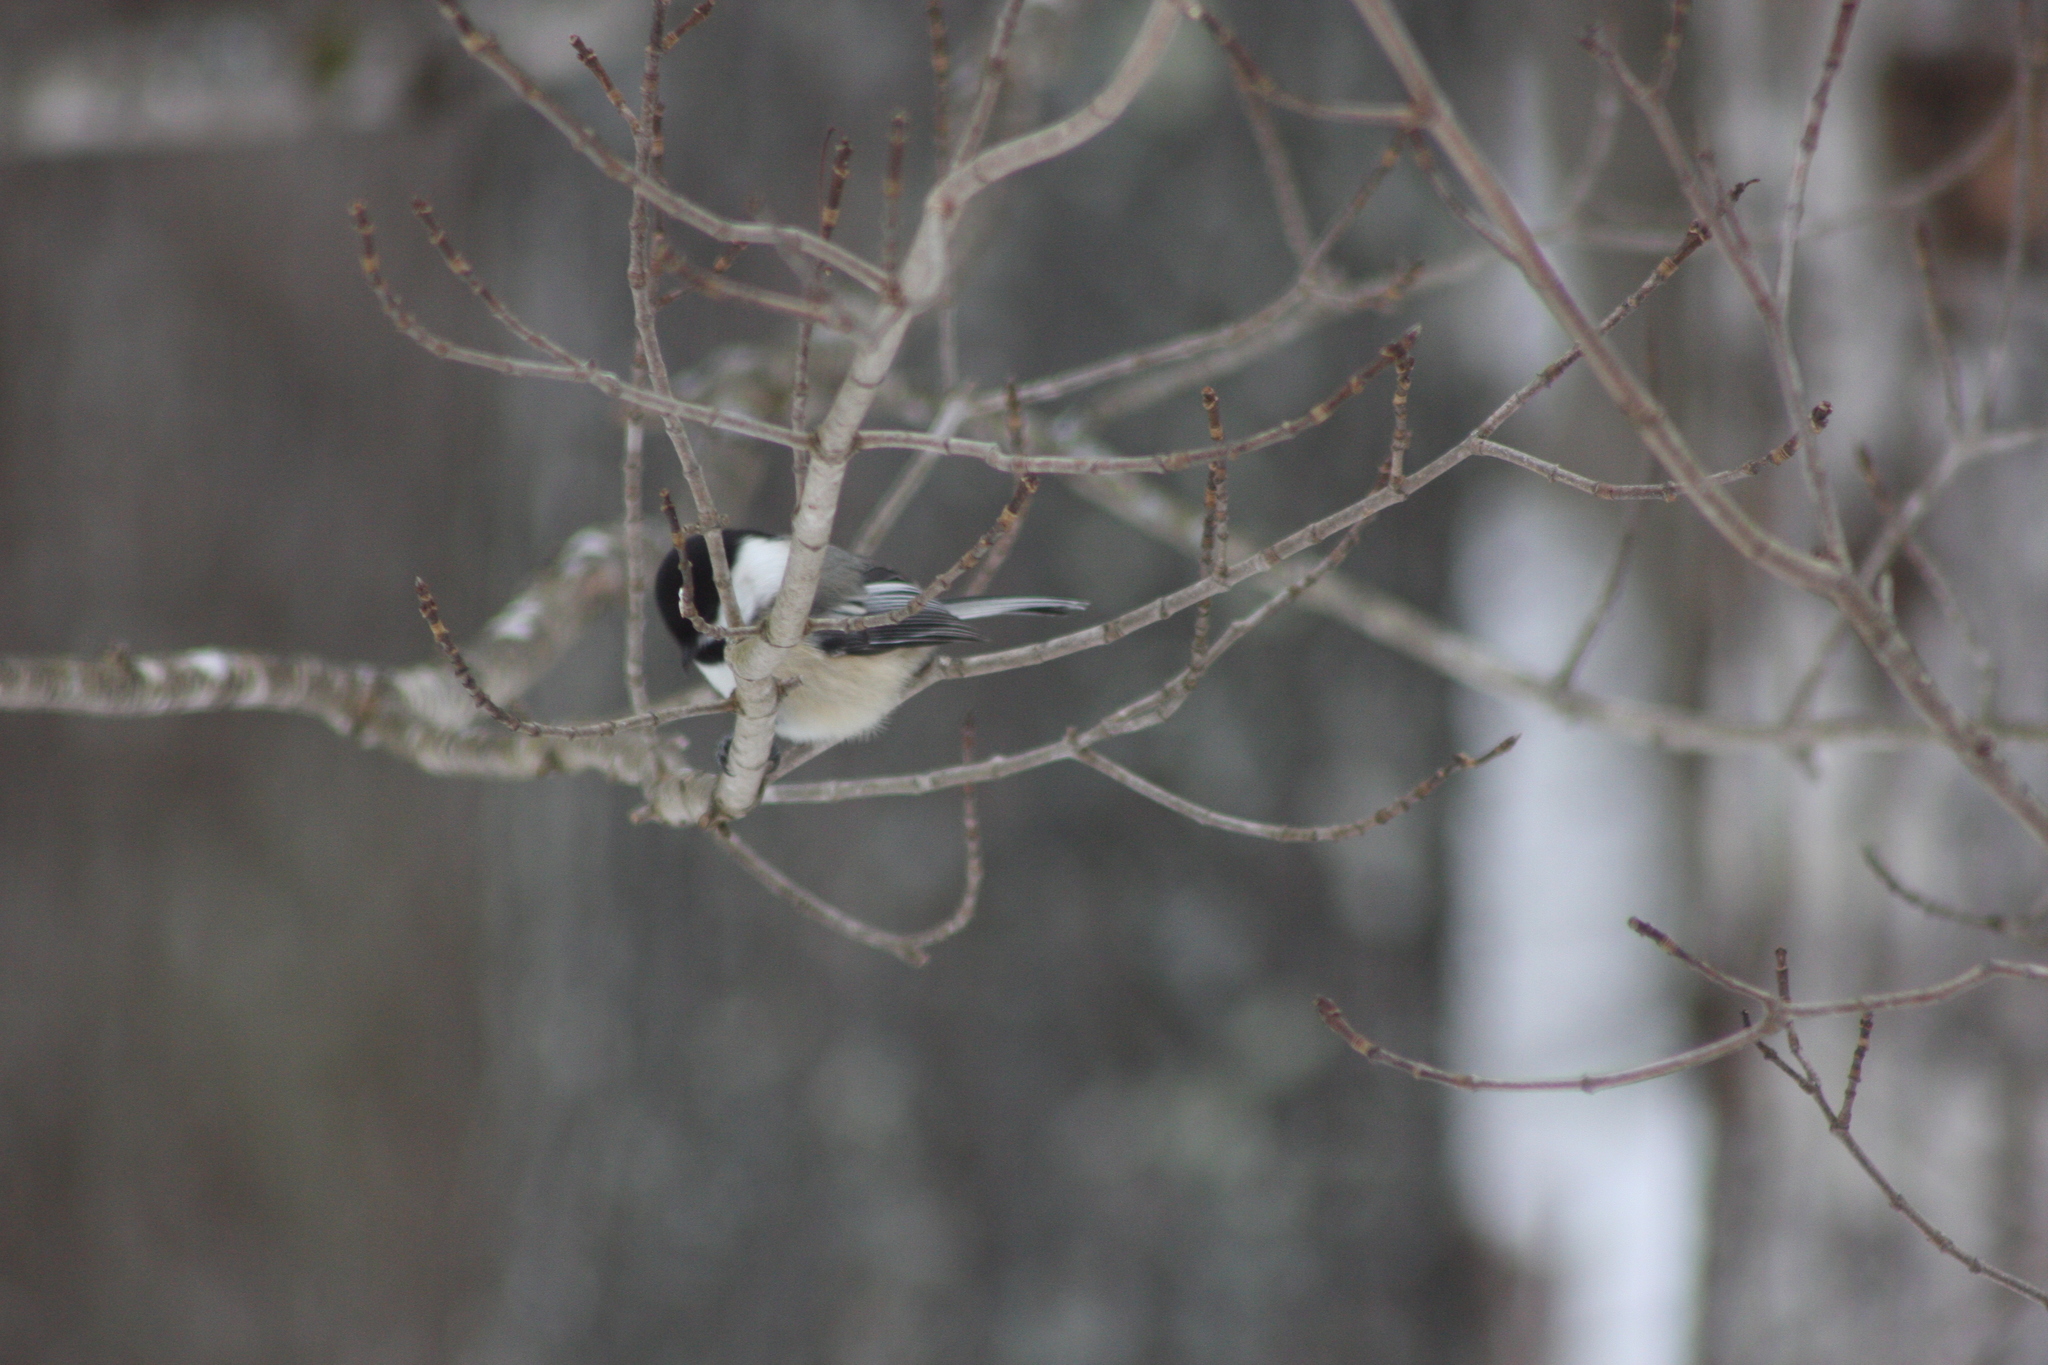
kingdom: Animalia
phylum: Chordata
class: Aves
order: Passeriformes
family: Paridae
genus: Poecile
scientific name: Poecile atricapillus
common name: Black-capped chickadee
